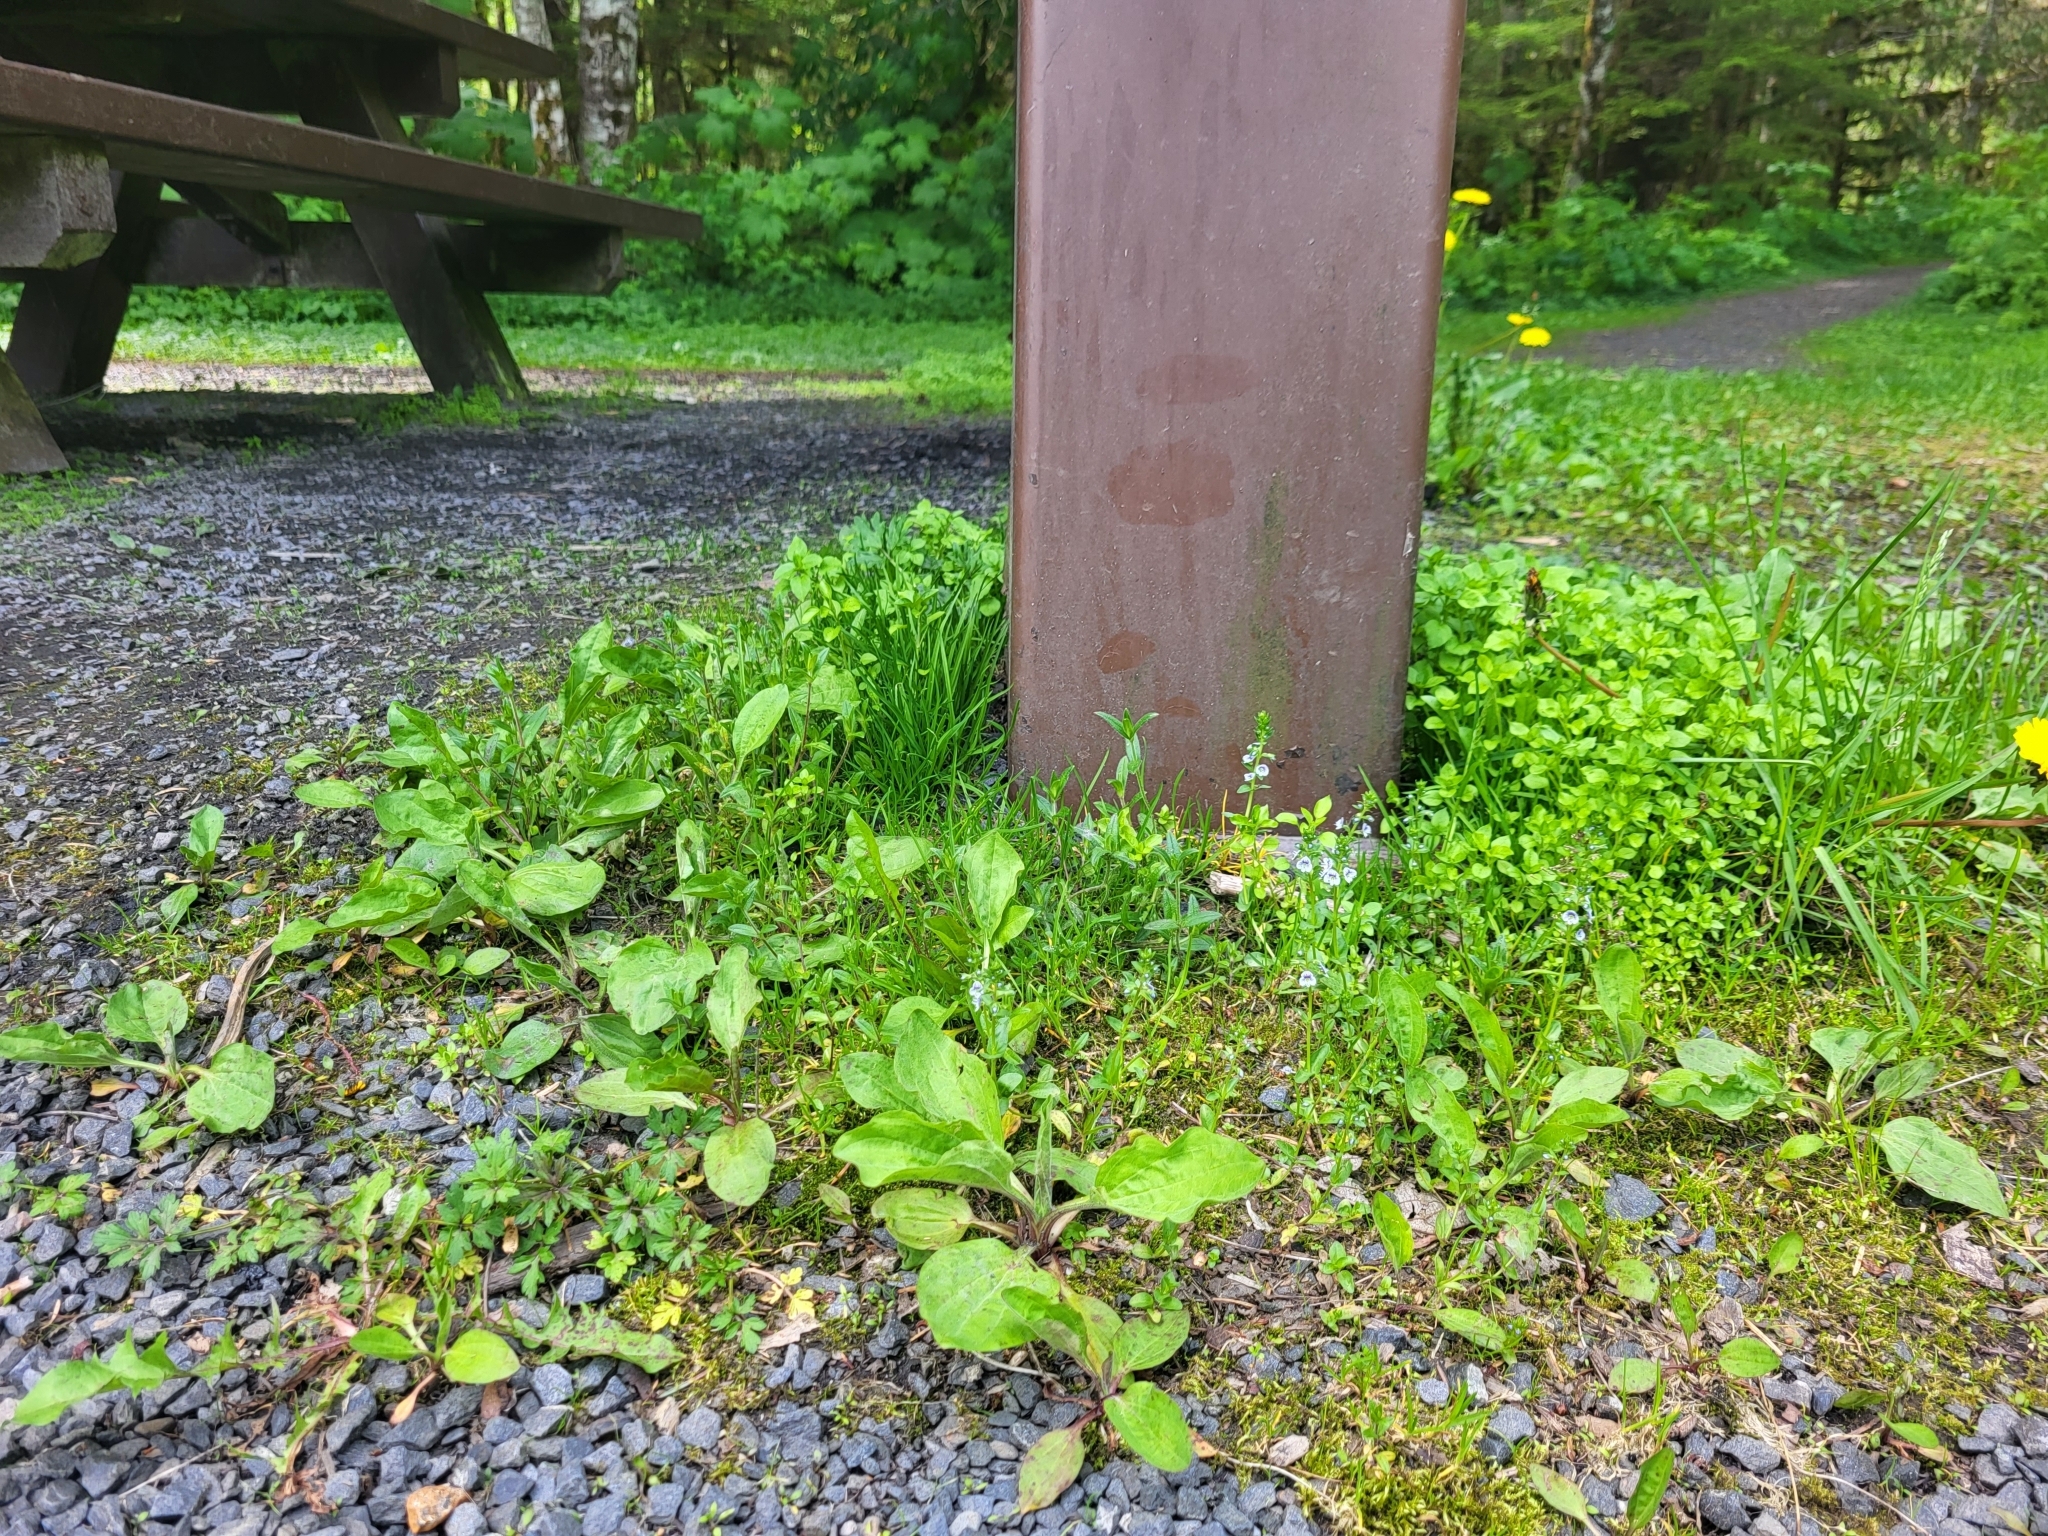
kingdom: Plantae
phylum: Tracheophyta
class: Magnoliopsida
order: Lamiales
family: Plantaginaceae
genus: Veronica
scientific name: Veronica serpyllifolia
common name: Thyme-leaved speedwell
